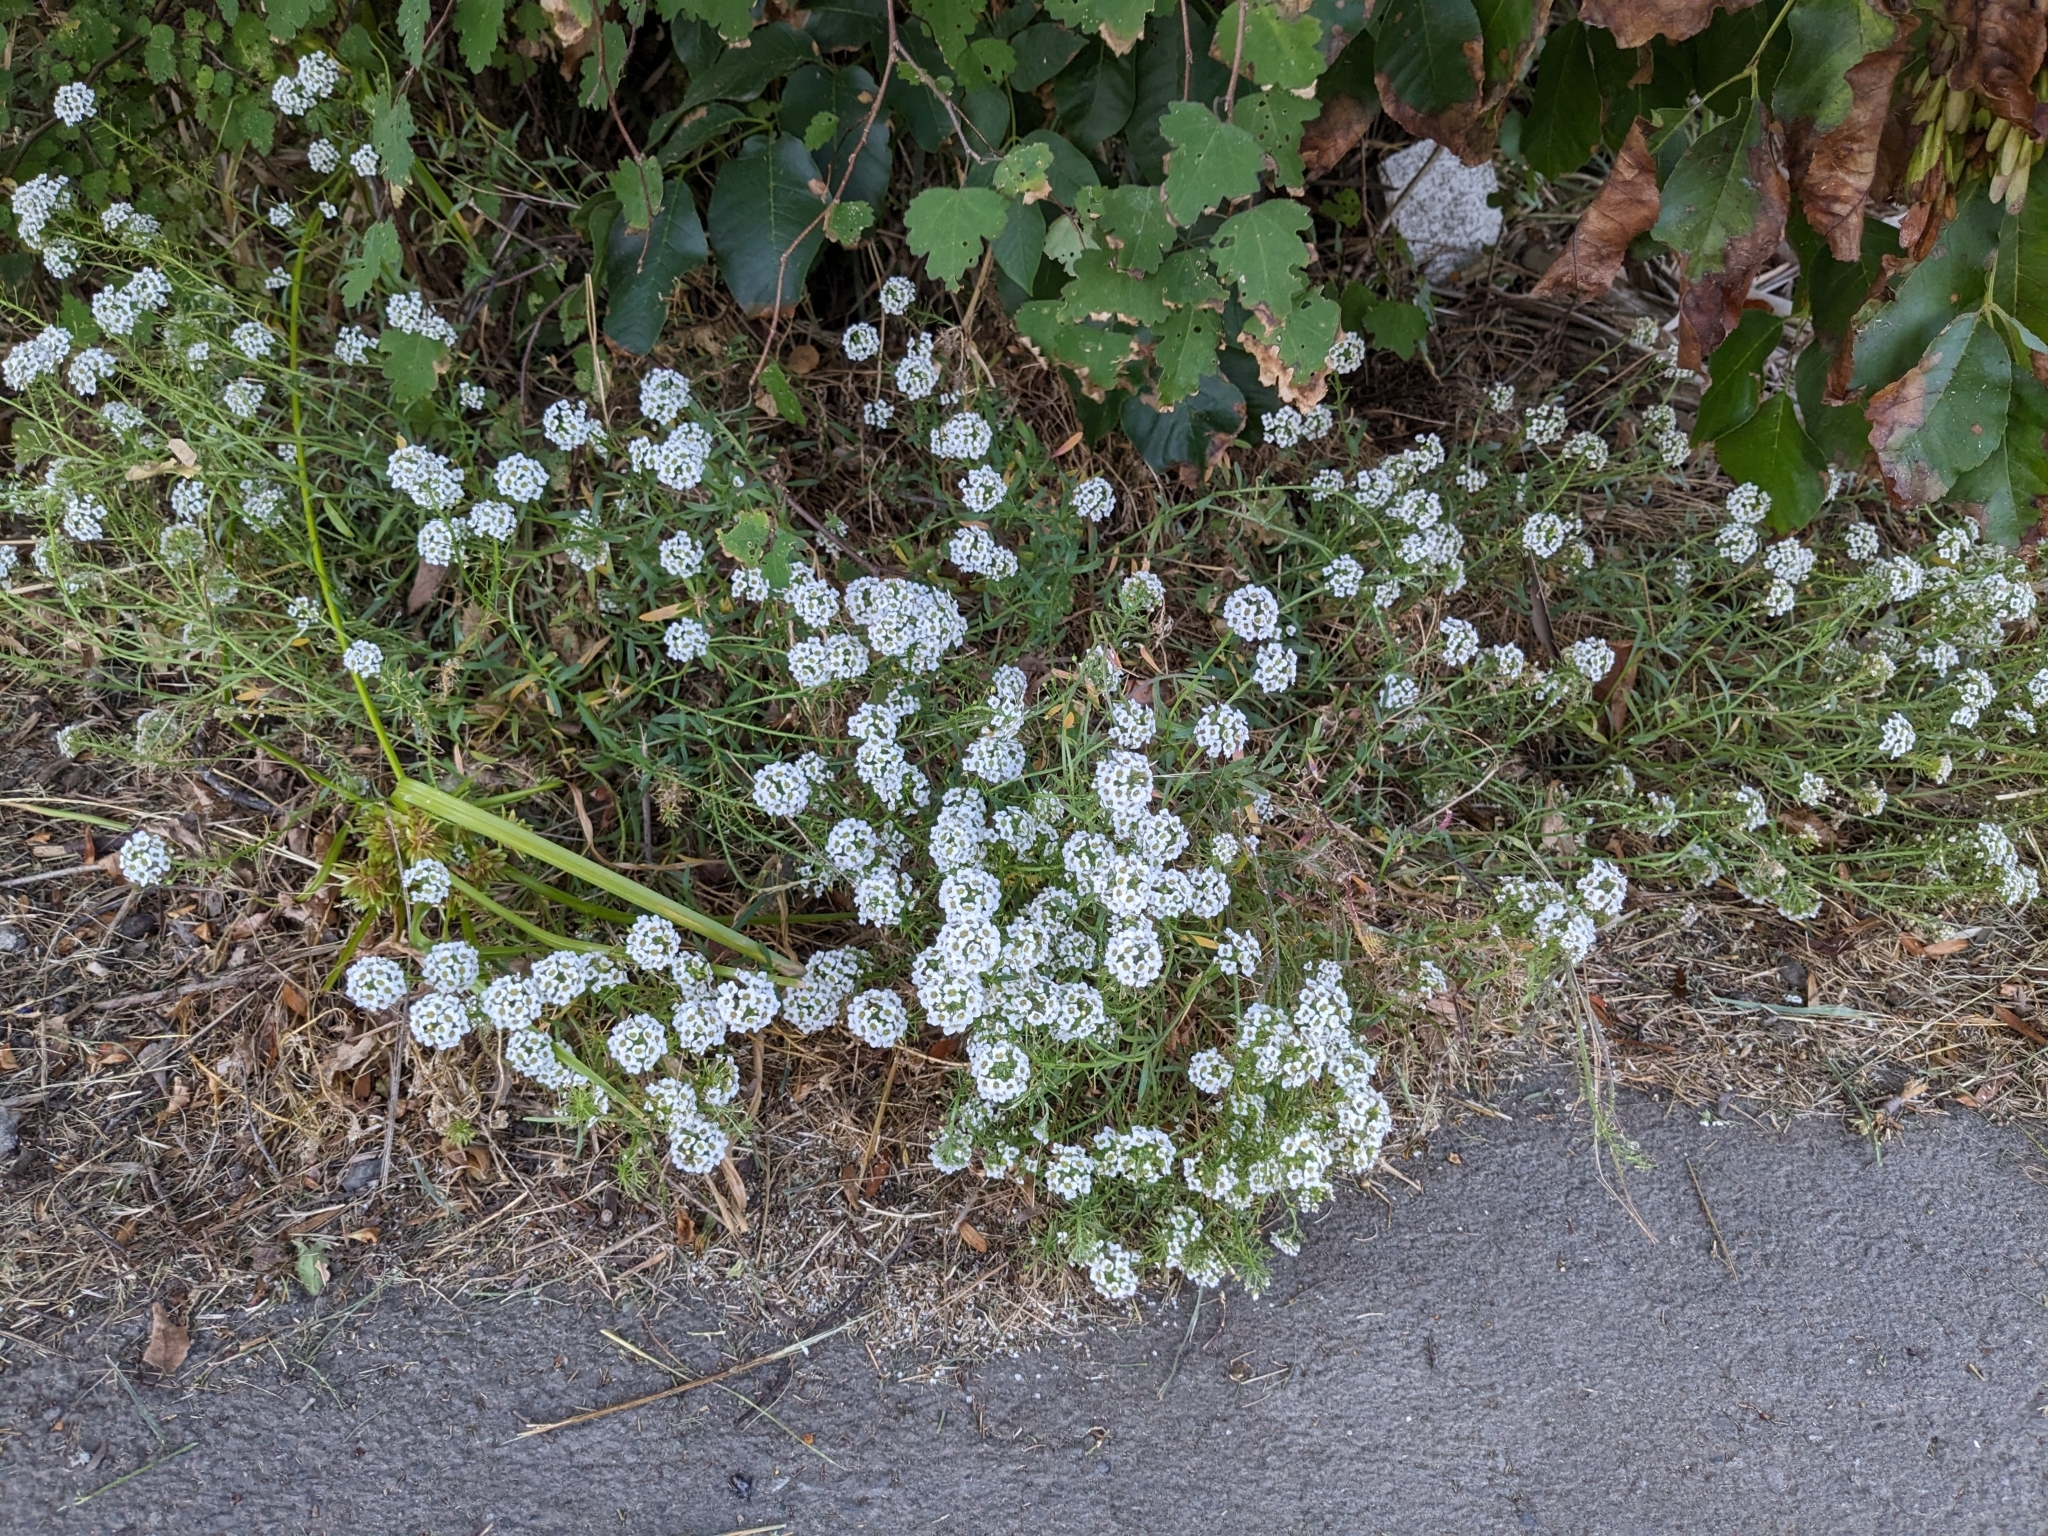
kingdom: Plantae
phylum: Tracheophyta
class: Magnoliopsida
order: Brassicales
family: Brassicaceae
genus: Lobularia
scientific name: Lobularia maritima
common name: Sweet alison
